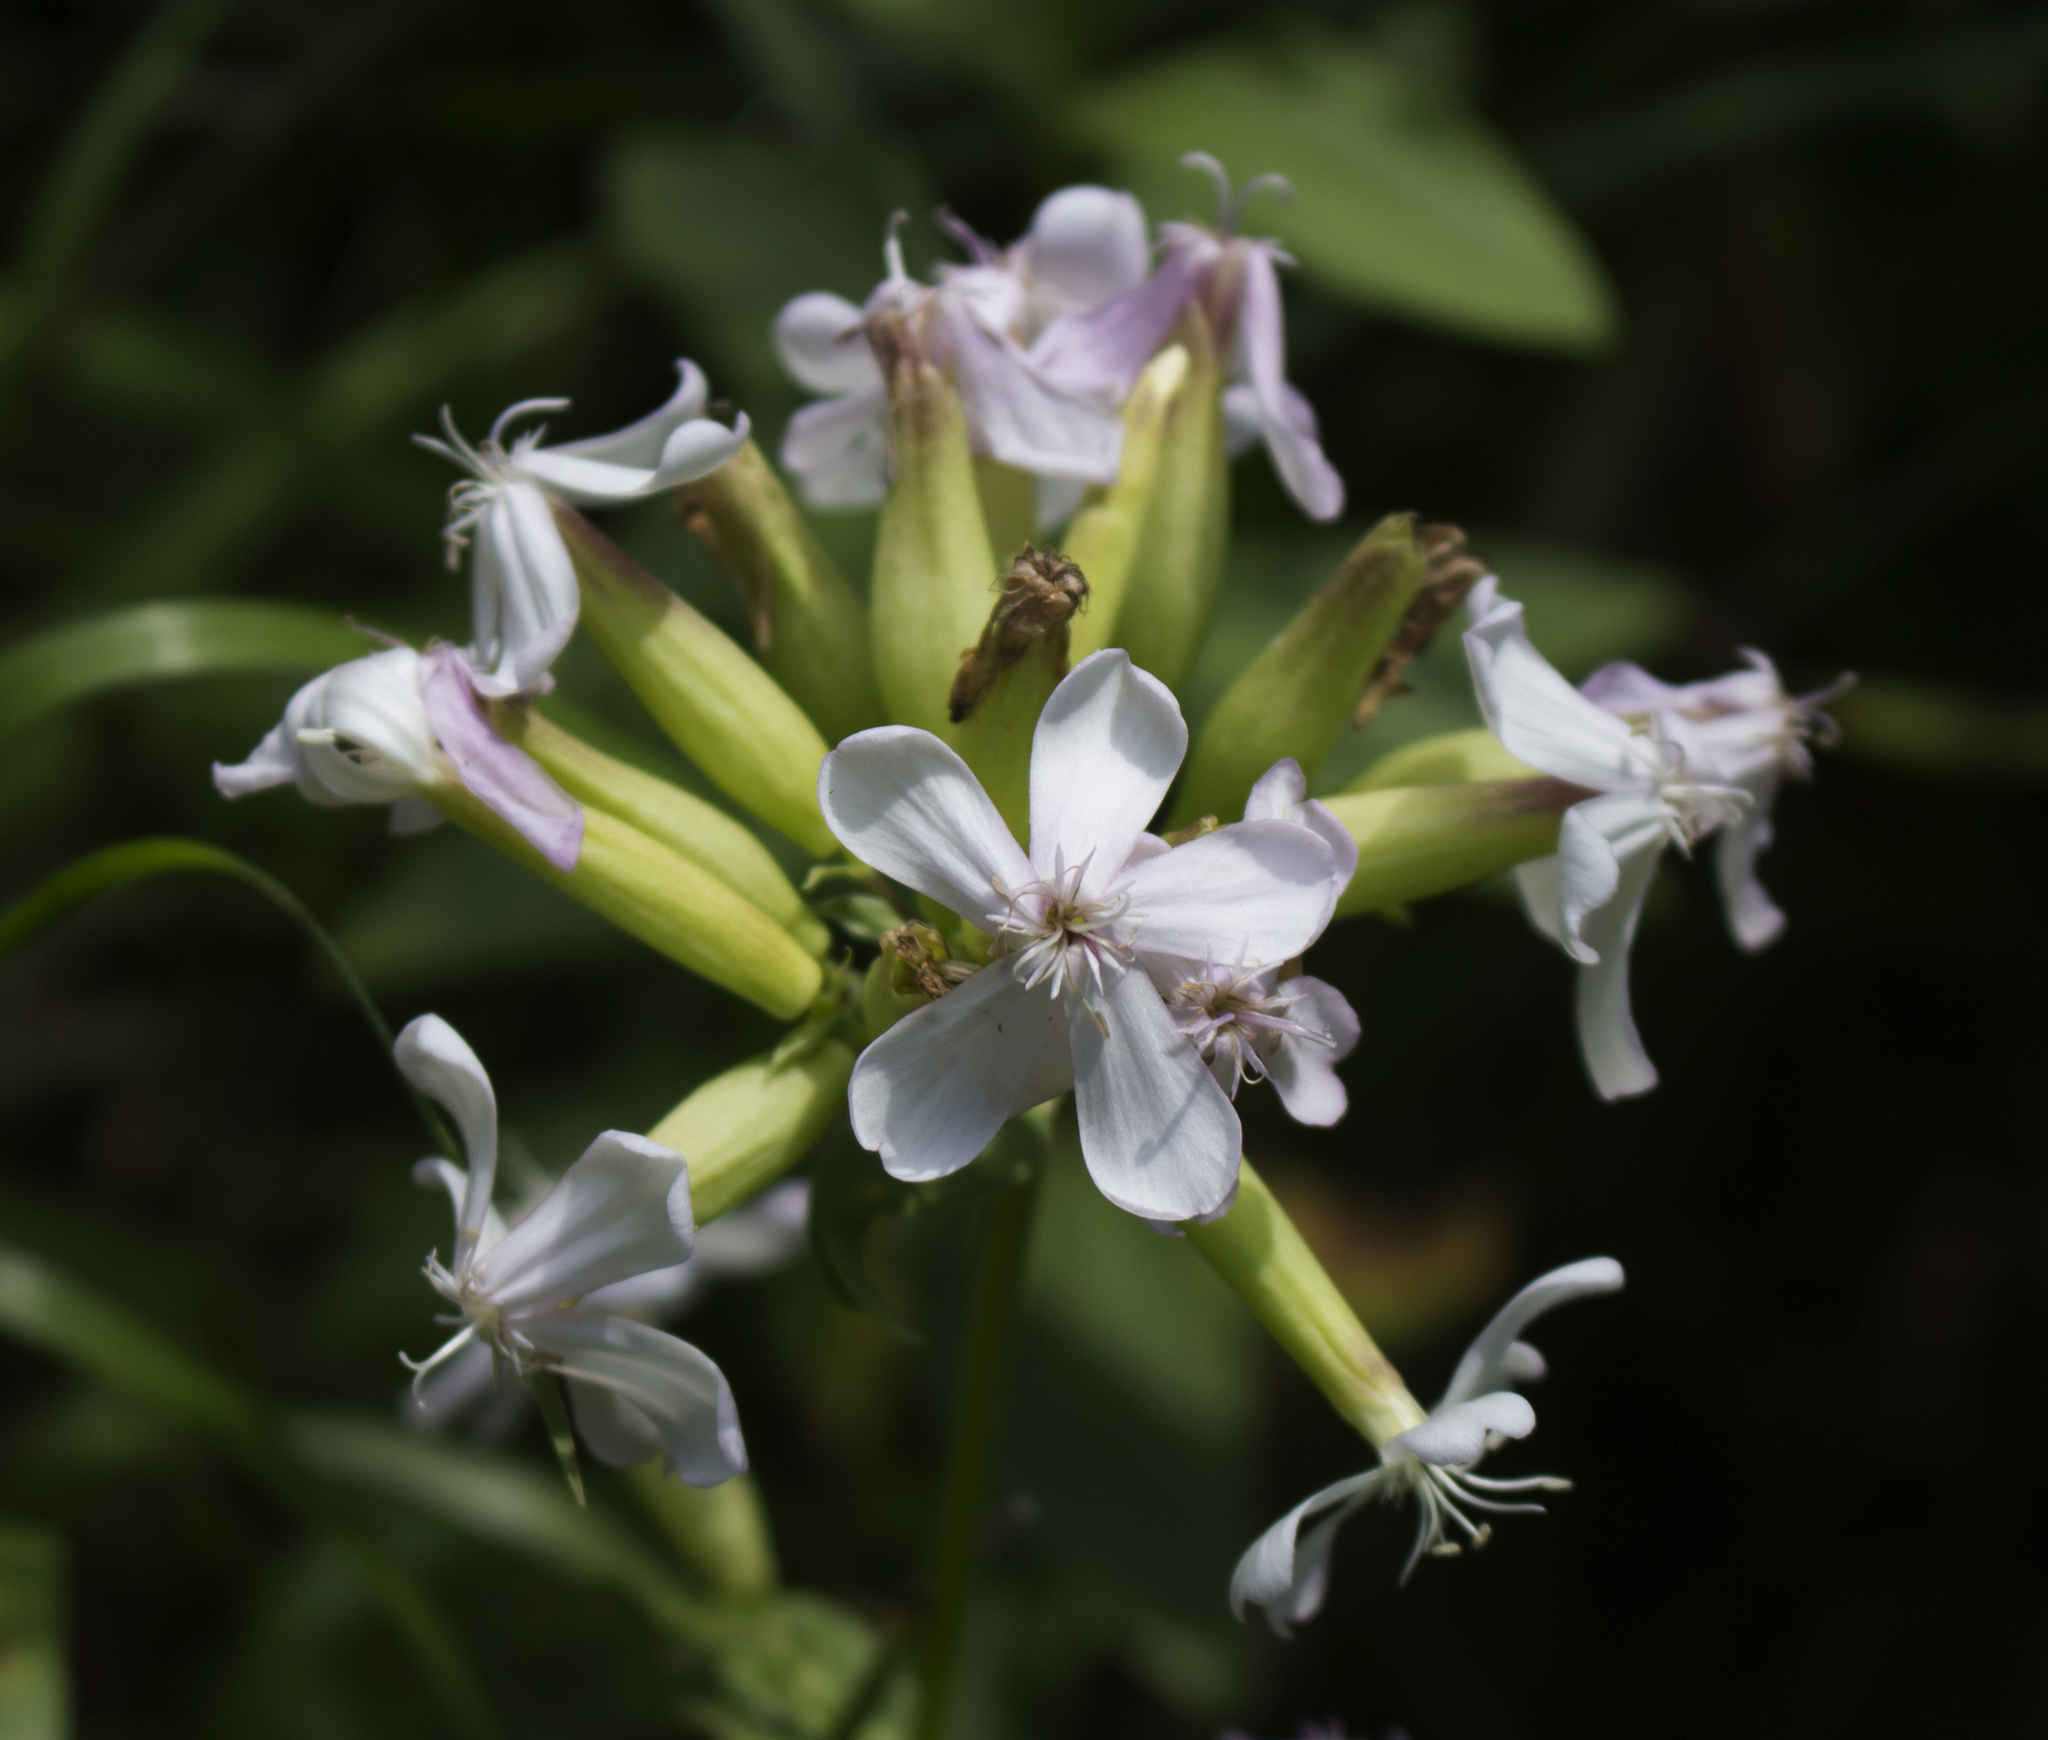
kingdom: Plantae
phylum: Tracheophyta
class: Magnoliopsida
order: Caryophyllales
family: Caryophyllaceae
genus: Saponaria
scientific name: Saponaria officinalis
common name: Soapwort
